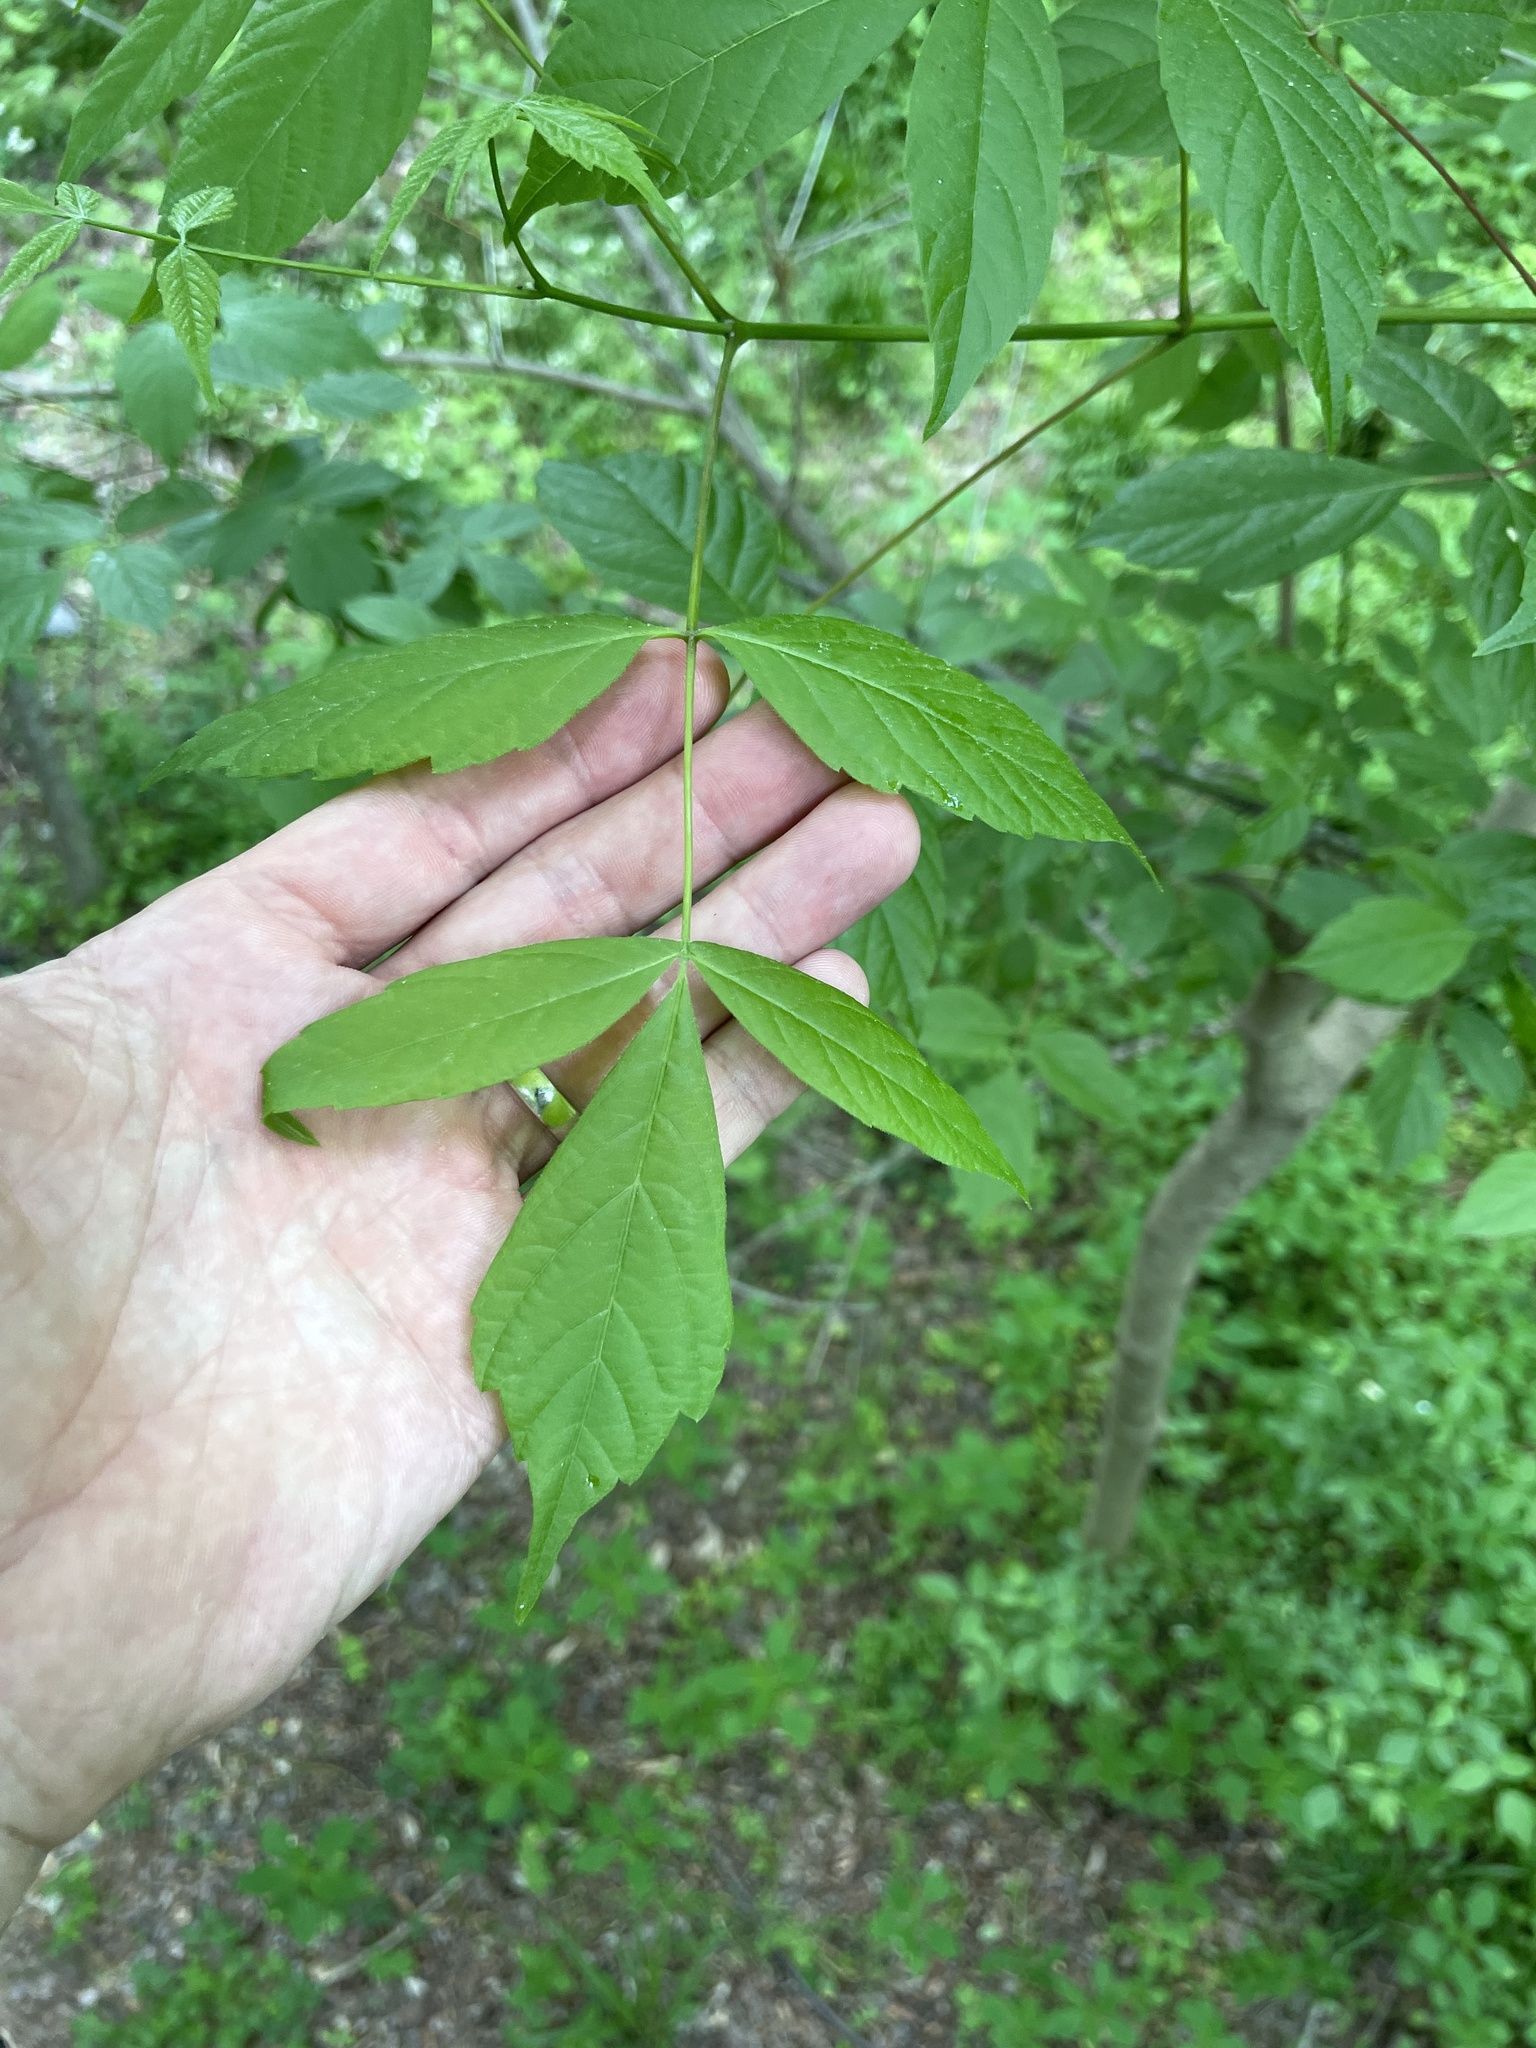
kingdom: Plantae
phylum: Tracheophyta
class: Magnoliopsida
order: Sapindales
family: Sapindaceae
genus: Acer
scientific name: Acer negundo
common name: Ashleaf maple
